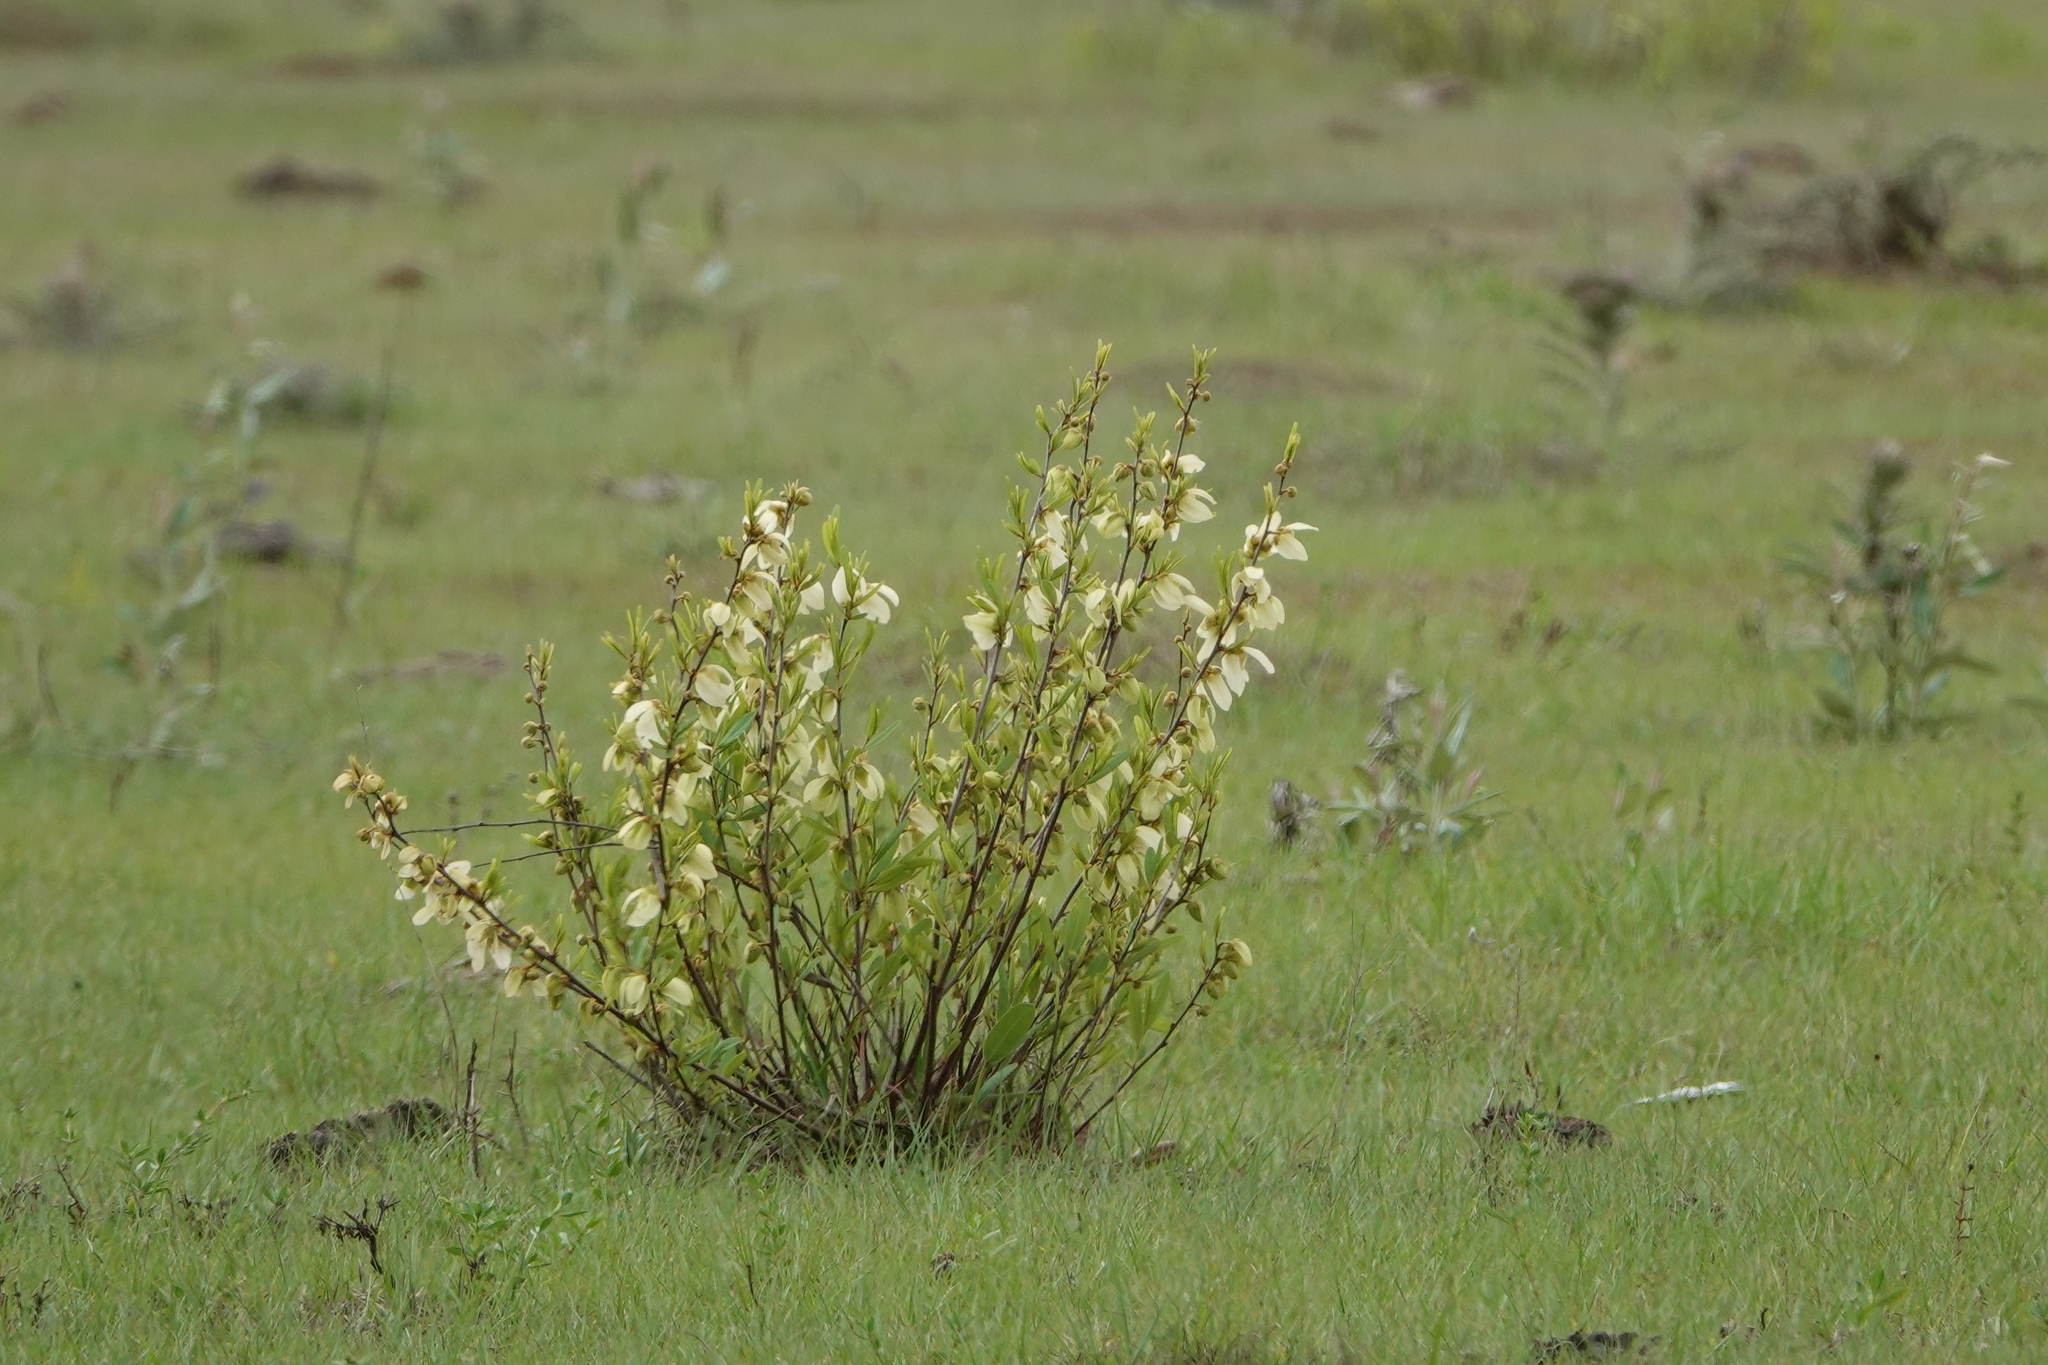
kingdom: Plantae
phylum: Tracheophyta
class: Magnoliopsida
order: Magnoliales
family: Annonaceae
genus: Asimina
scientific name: Asimina reticulata
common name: Flag pawpaw
